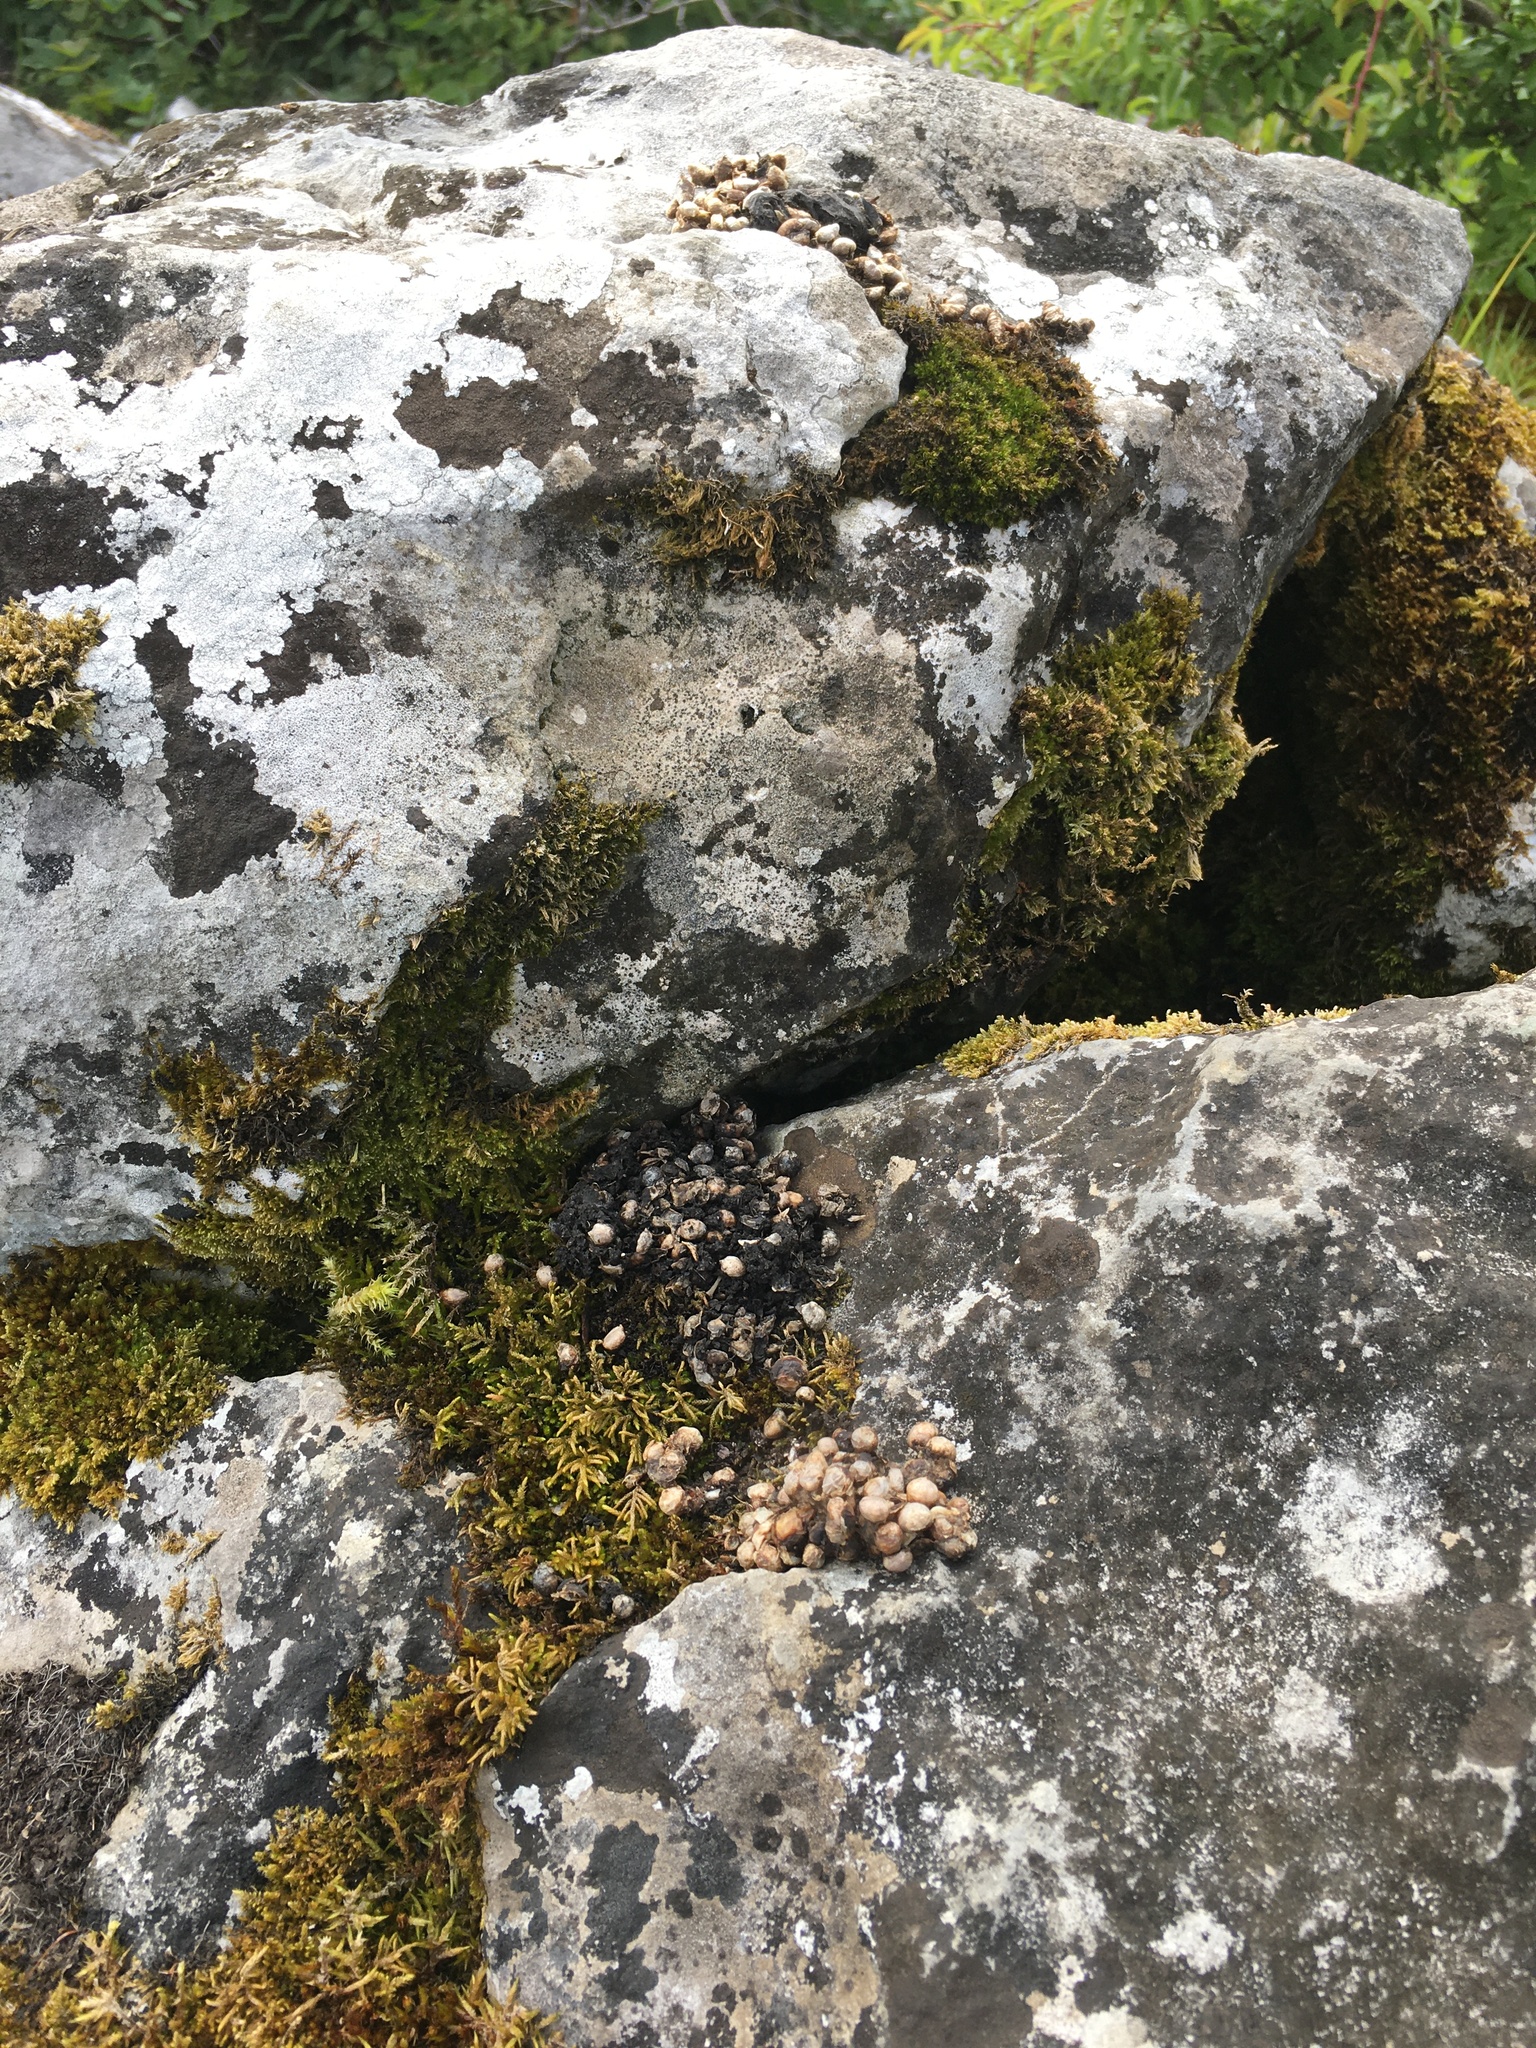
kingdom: Animalia
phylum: Chordata
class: Mammalia
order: Carnivora
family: Mustelidae
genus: Martes
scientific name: Martes martes
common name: European pine marten
